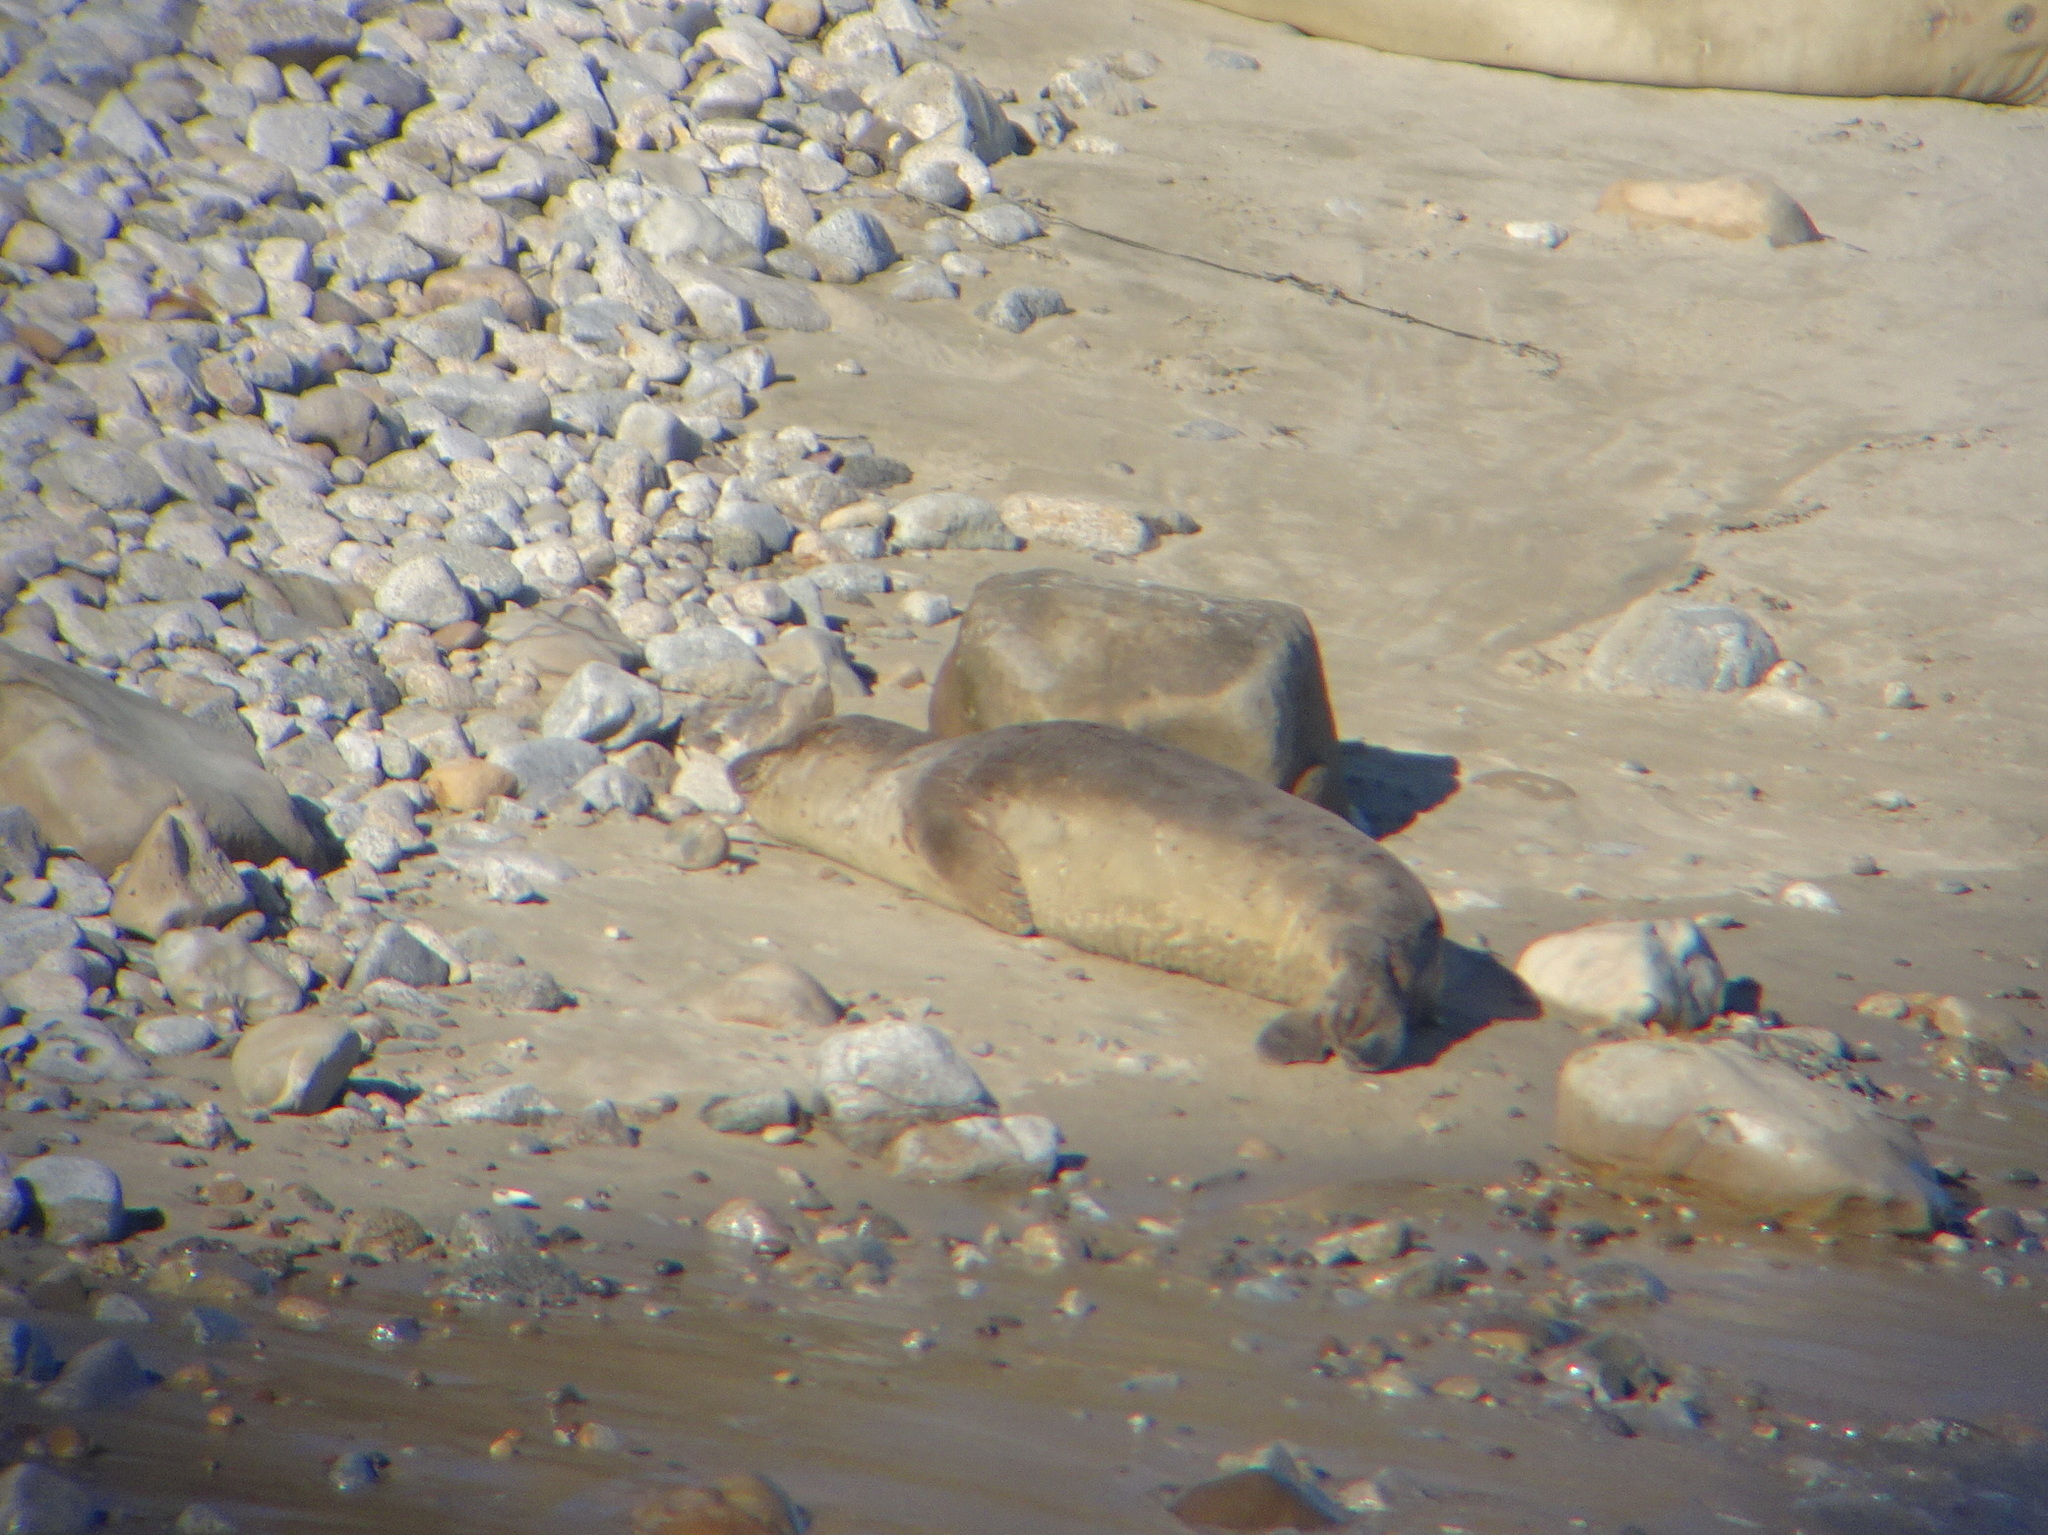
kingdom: Animalia
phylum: Chordata
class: Mammalia
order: Carnivora
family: Phocidae
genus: Mirounga
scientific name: Mirounga angustirostris
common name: Northern elephant seal
